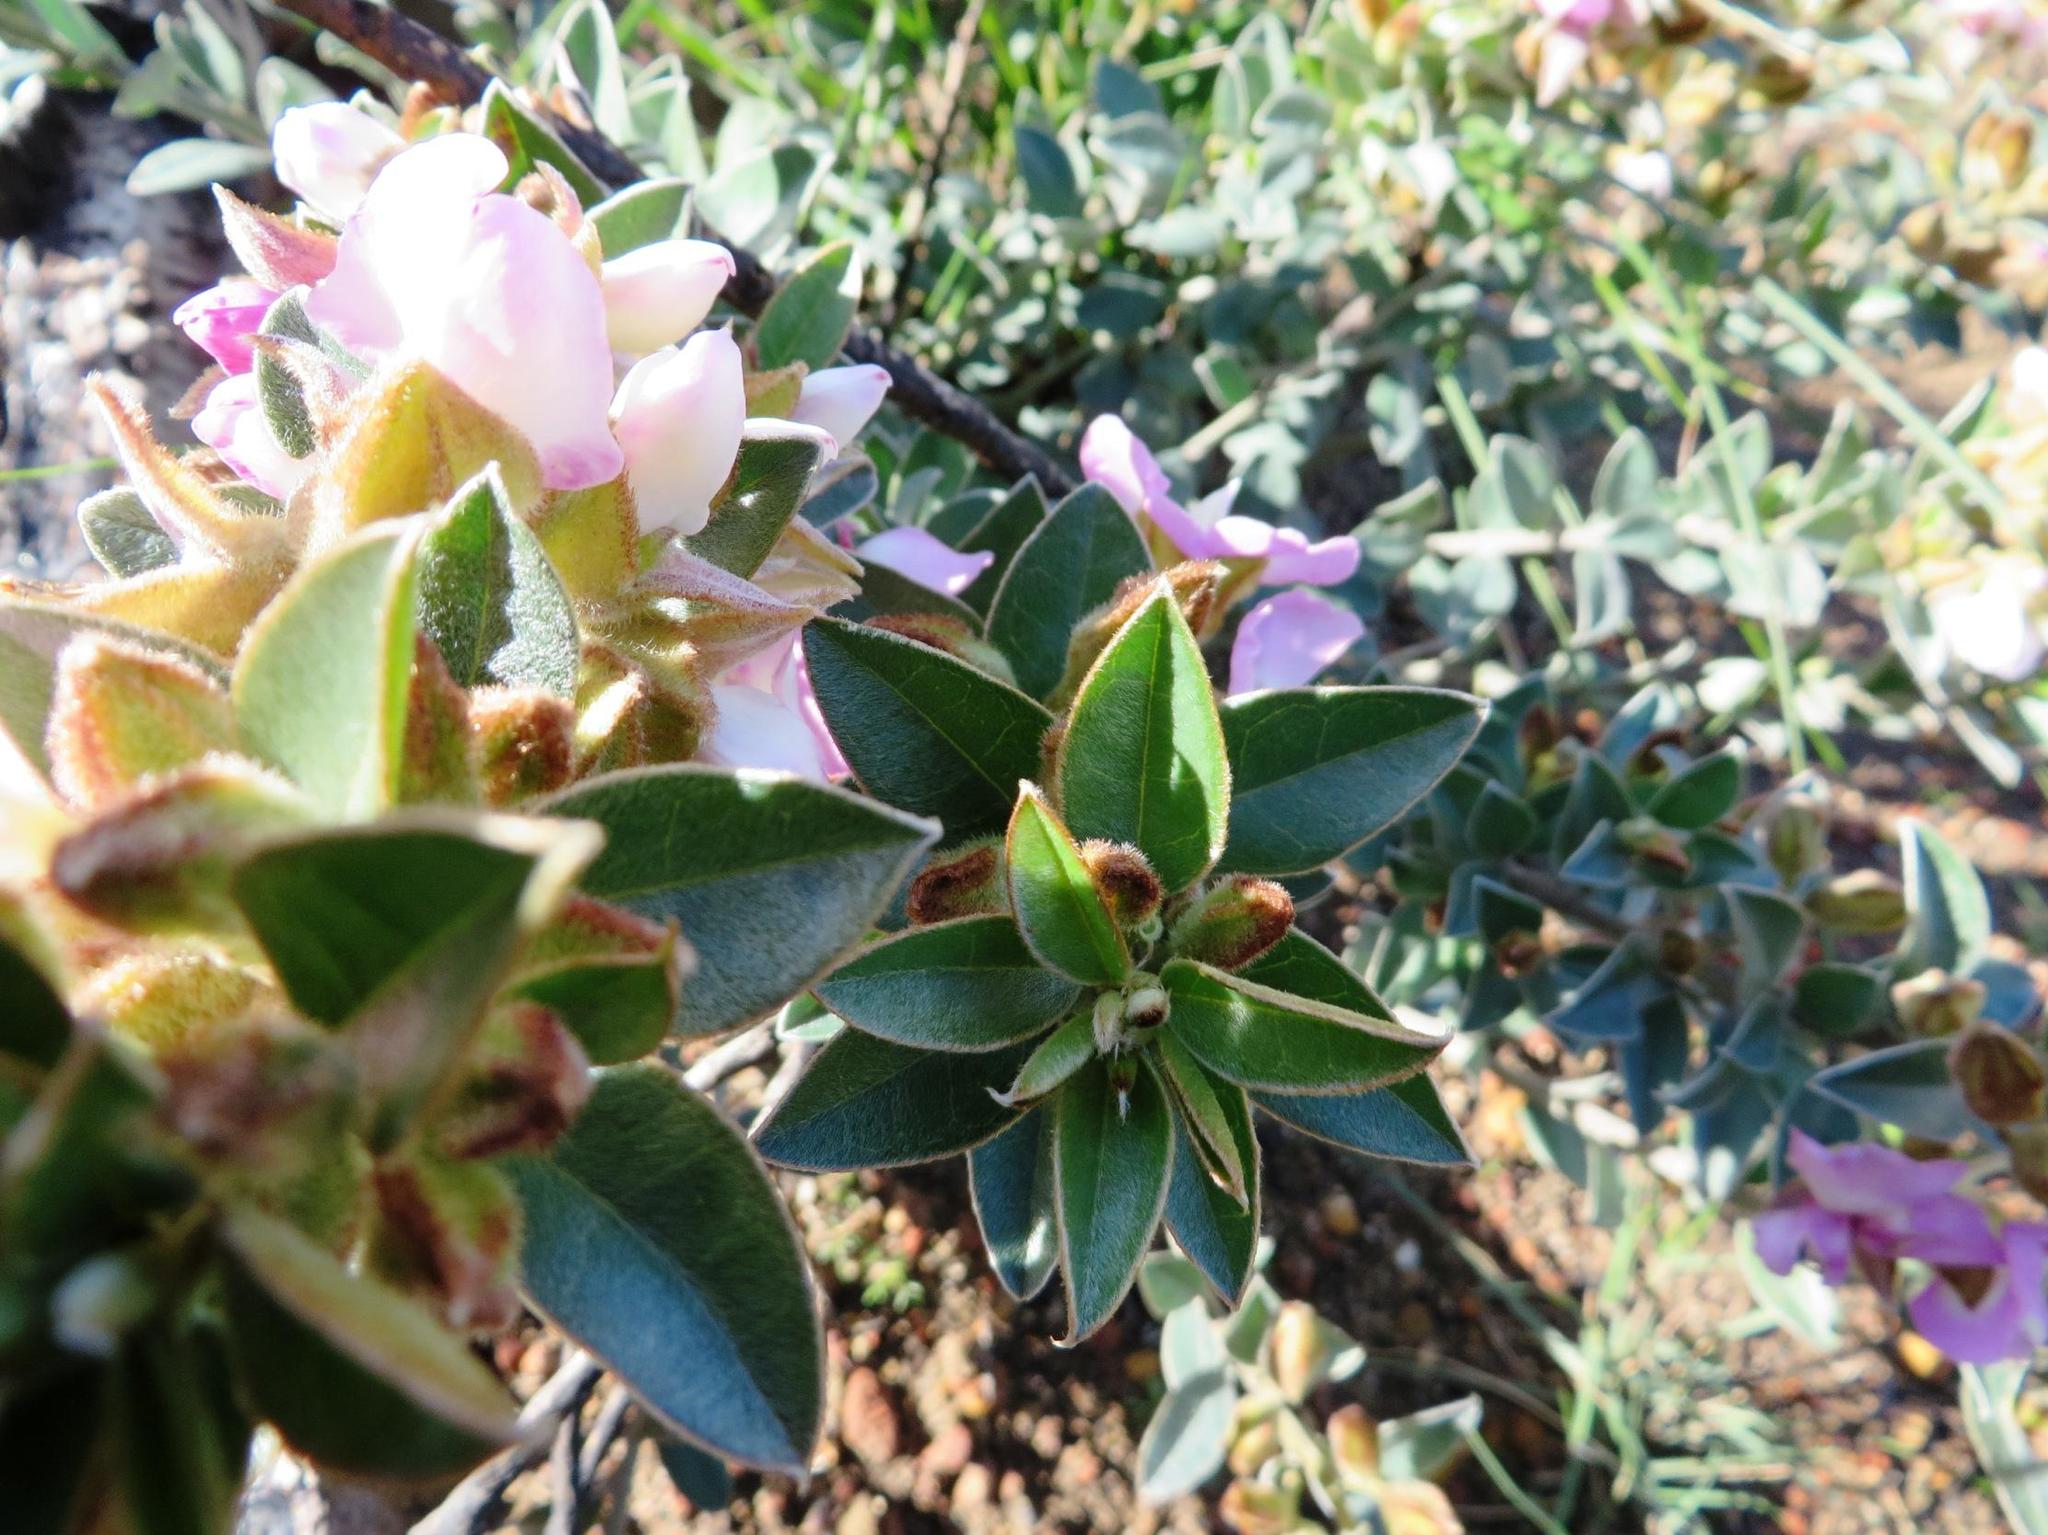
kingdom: Plantae
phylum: Tracheophyta
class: Magnoliopsida
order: Fabales
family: Fabaceae
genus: Podalyria
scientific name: Podalyria variabilis
